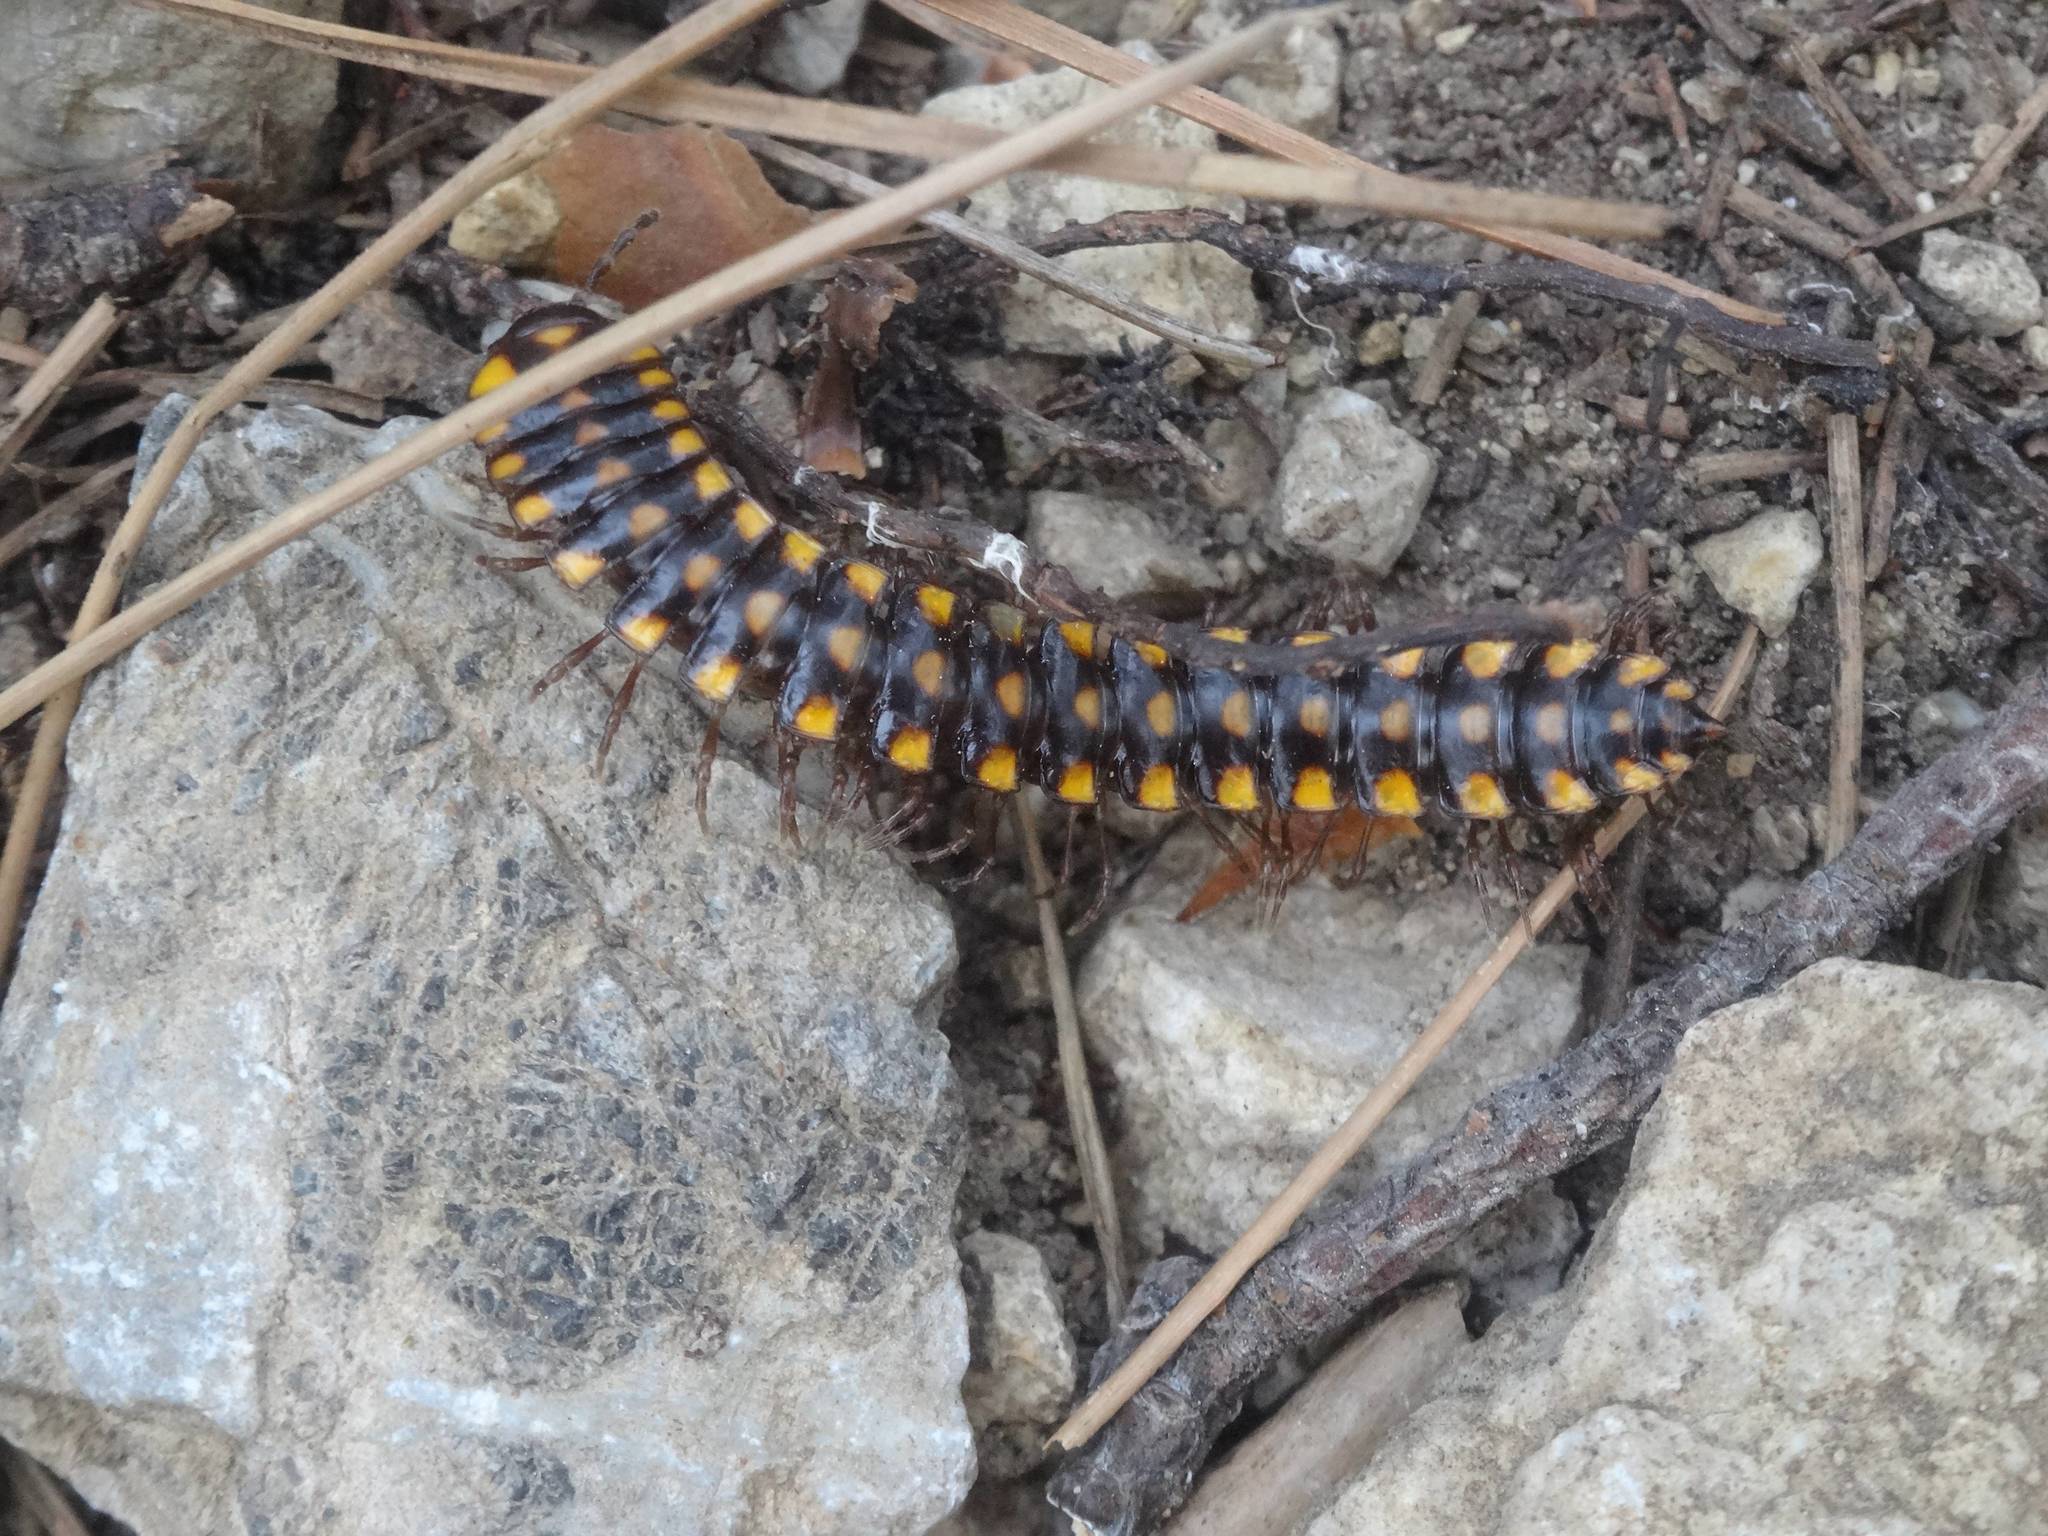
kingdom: Animalia
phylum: Arthropoda
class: Diplopoda
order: Polydesmida
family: Xystodesmidae
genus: Melaphe
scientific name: Melaphe vestita
